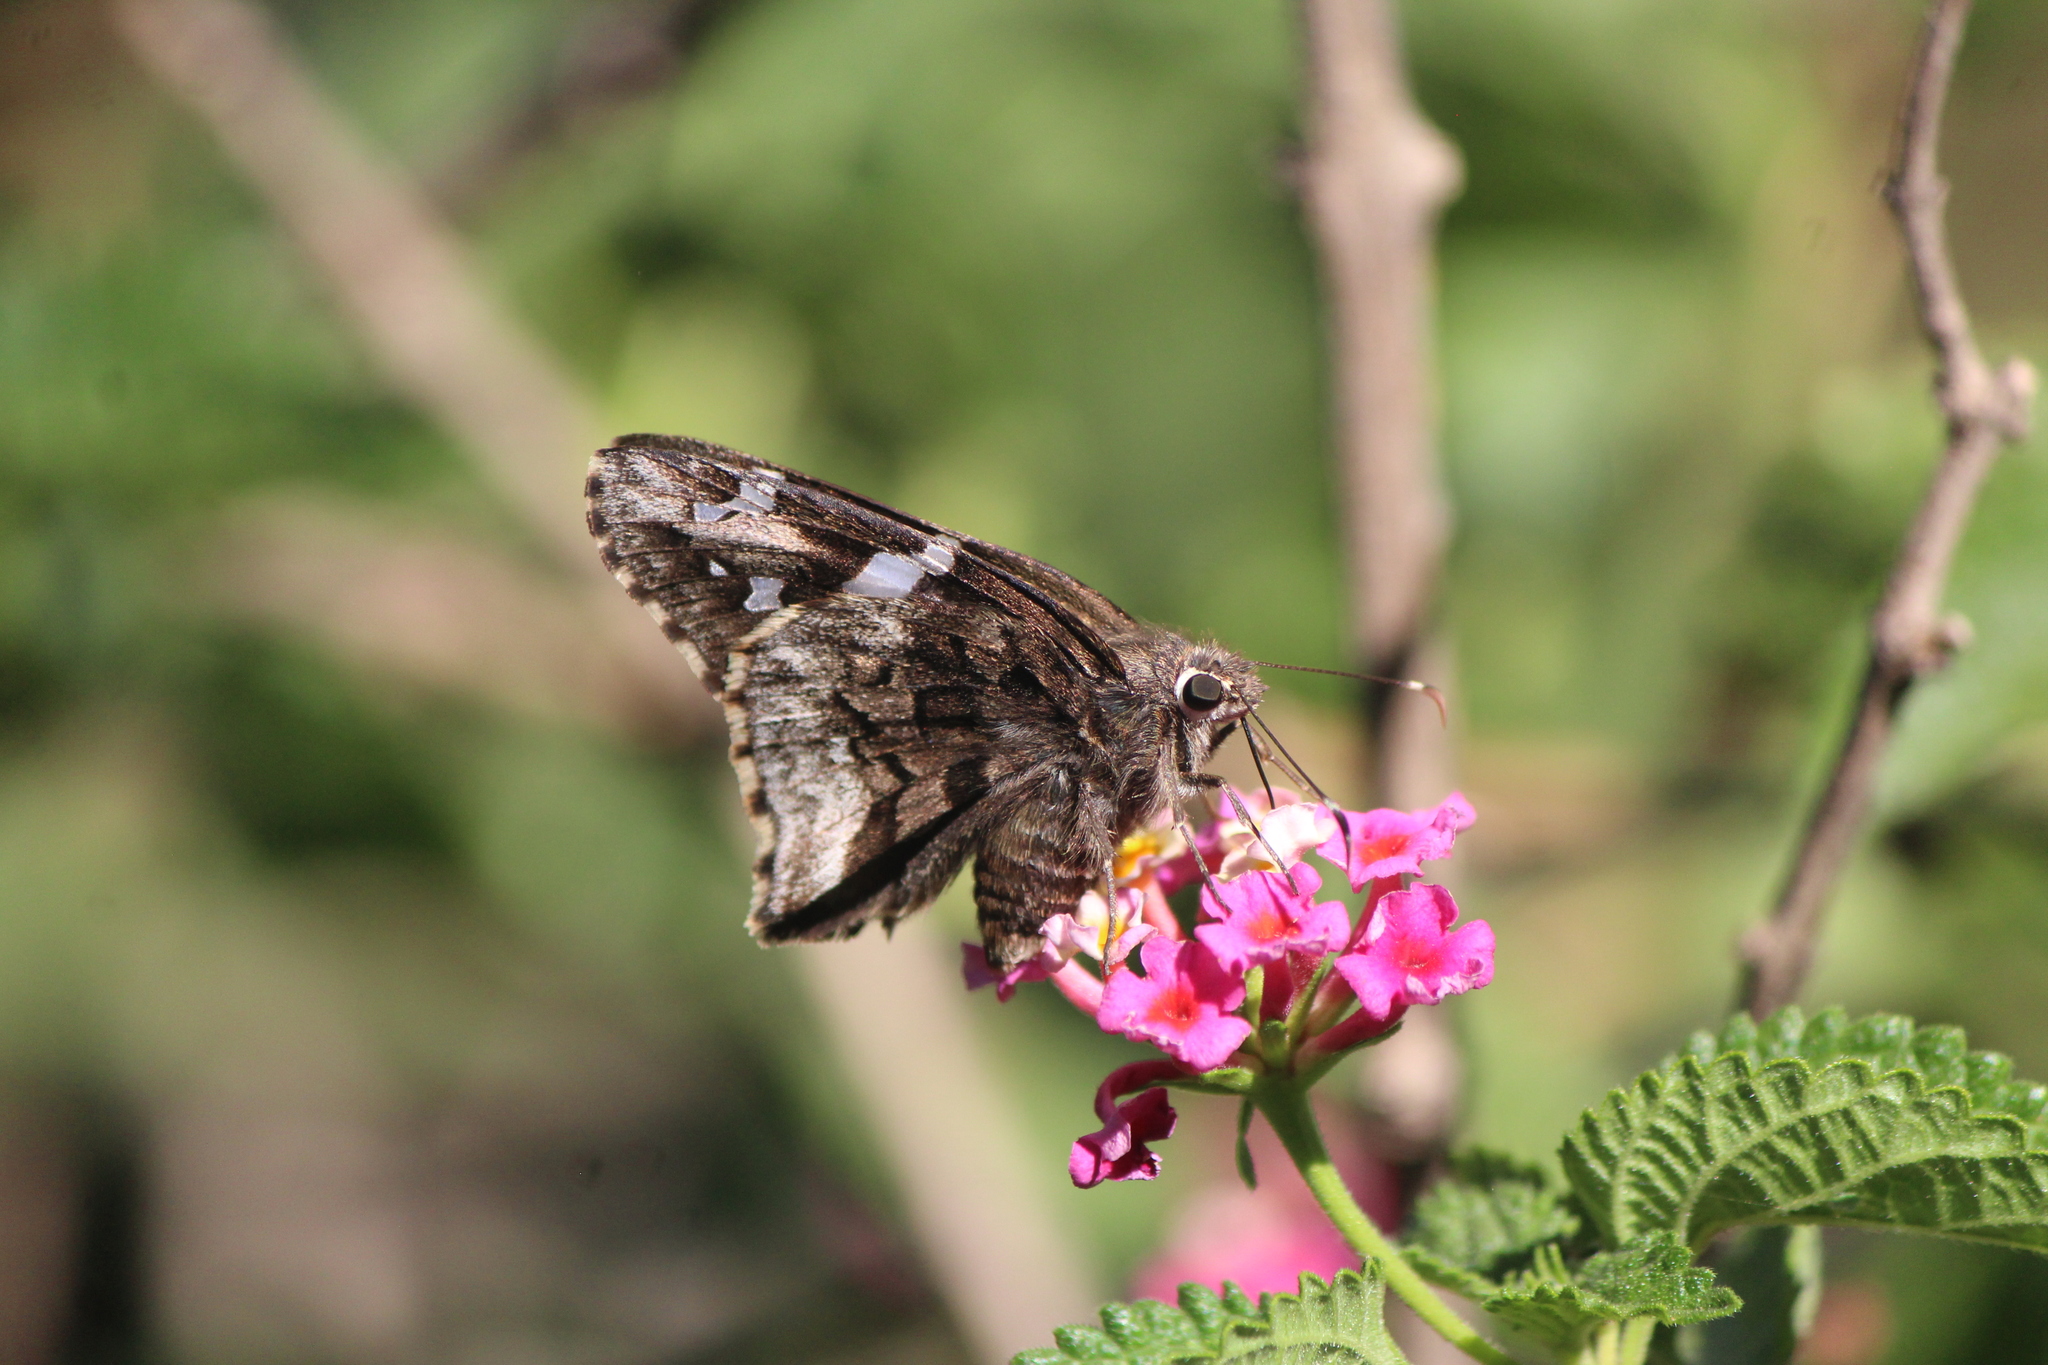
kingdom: Animalia
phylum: Arthropoda
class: Insecta
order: Lepidoptera
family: Hesperiidae
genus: Codatractus
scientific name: Codatractus arizonensis
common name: Arizona skipper
